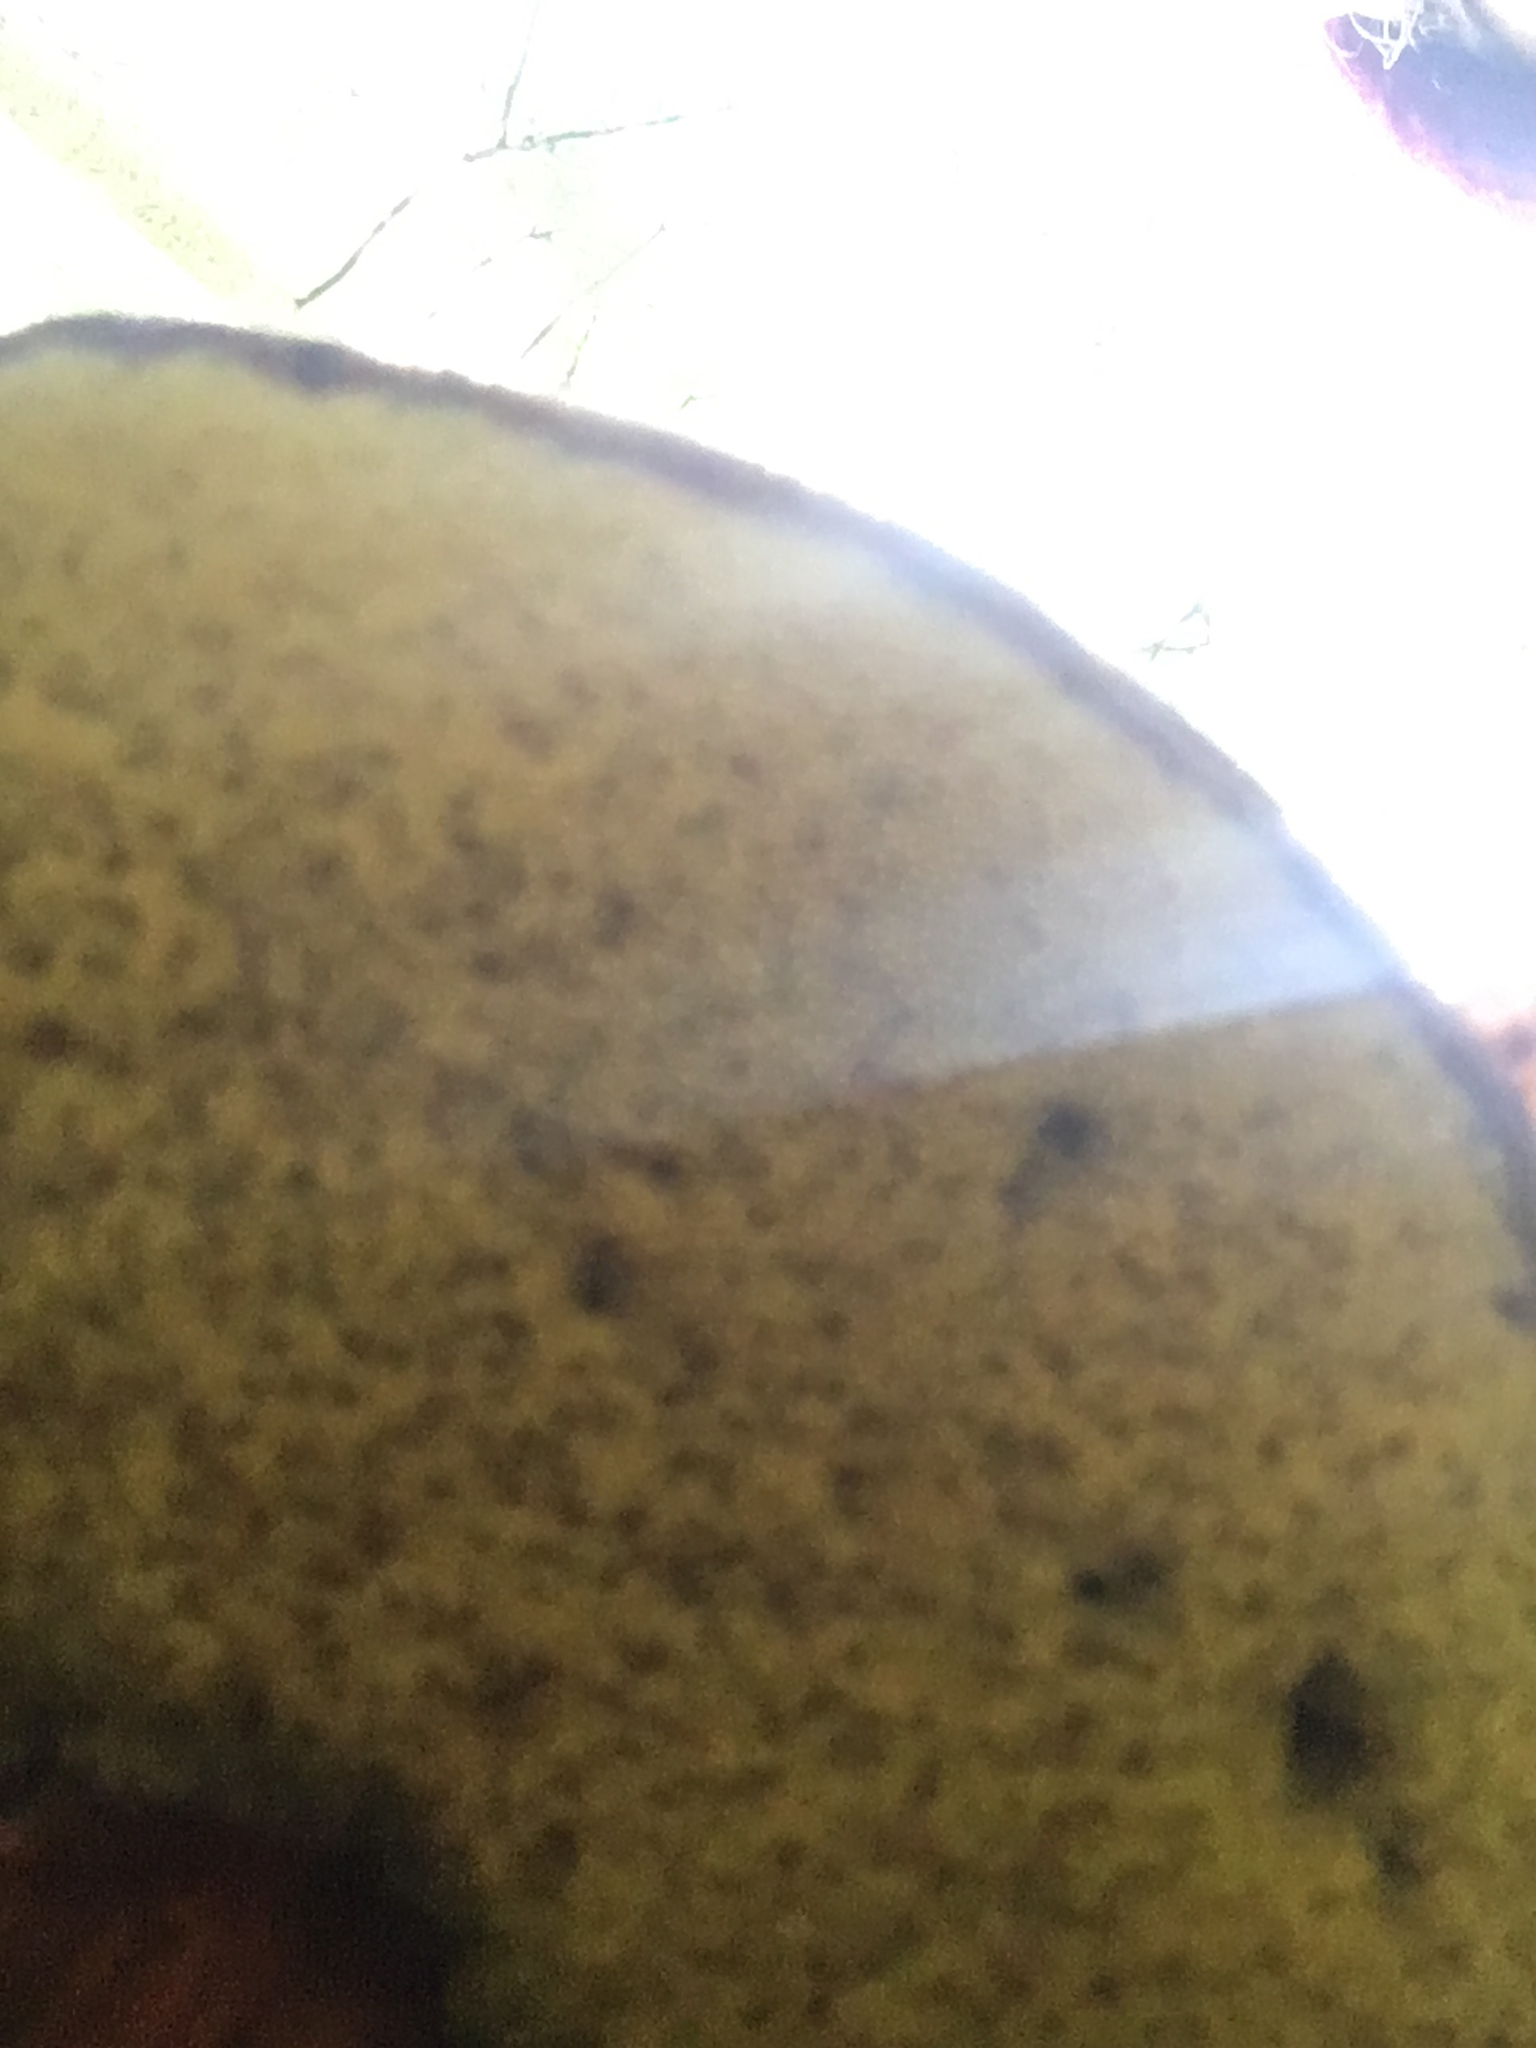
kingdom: Fungi
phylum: Basidiomycota
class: Agaricomycetes
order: Boletales
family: Boletaceae
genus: Xerocomellus
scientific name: Xerocomellus atropurpureus
